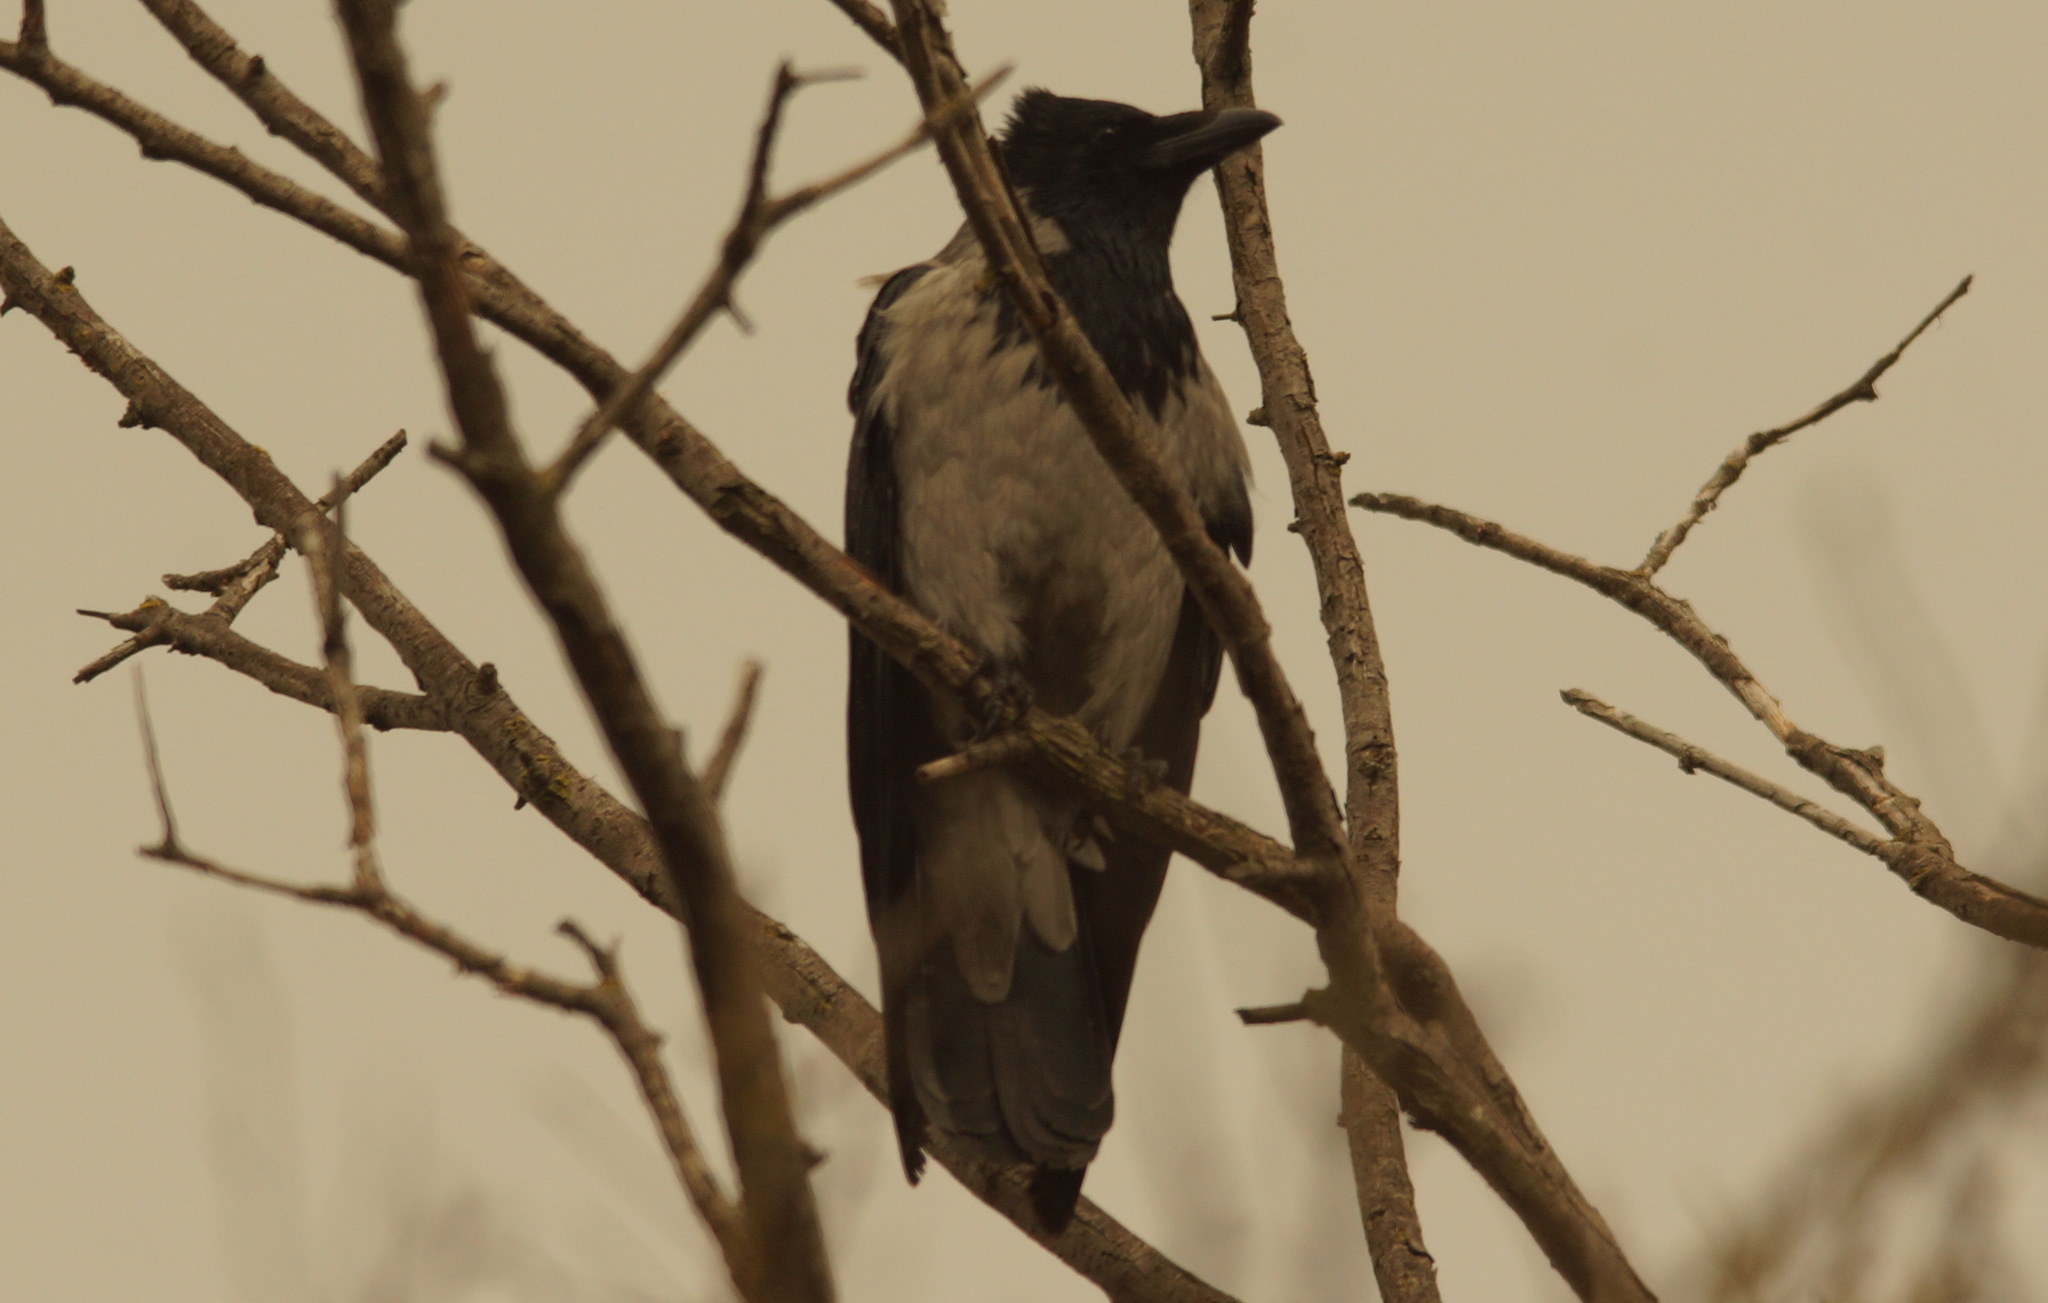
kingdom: Animalia
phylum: Chordata
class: Aves
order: Passeriformes
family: Corvidae
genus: Corvus
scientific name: Corvus cornix
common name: Hooded crow
